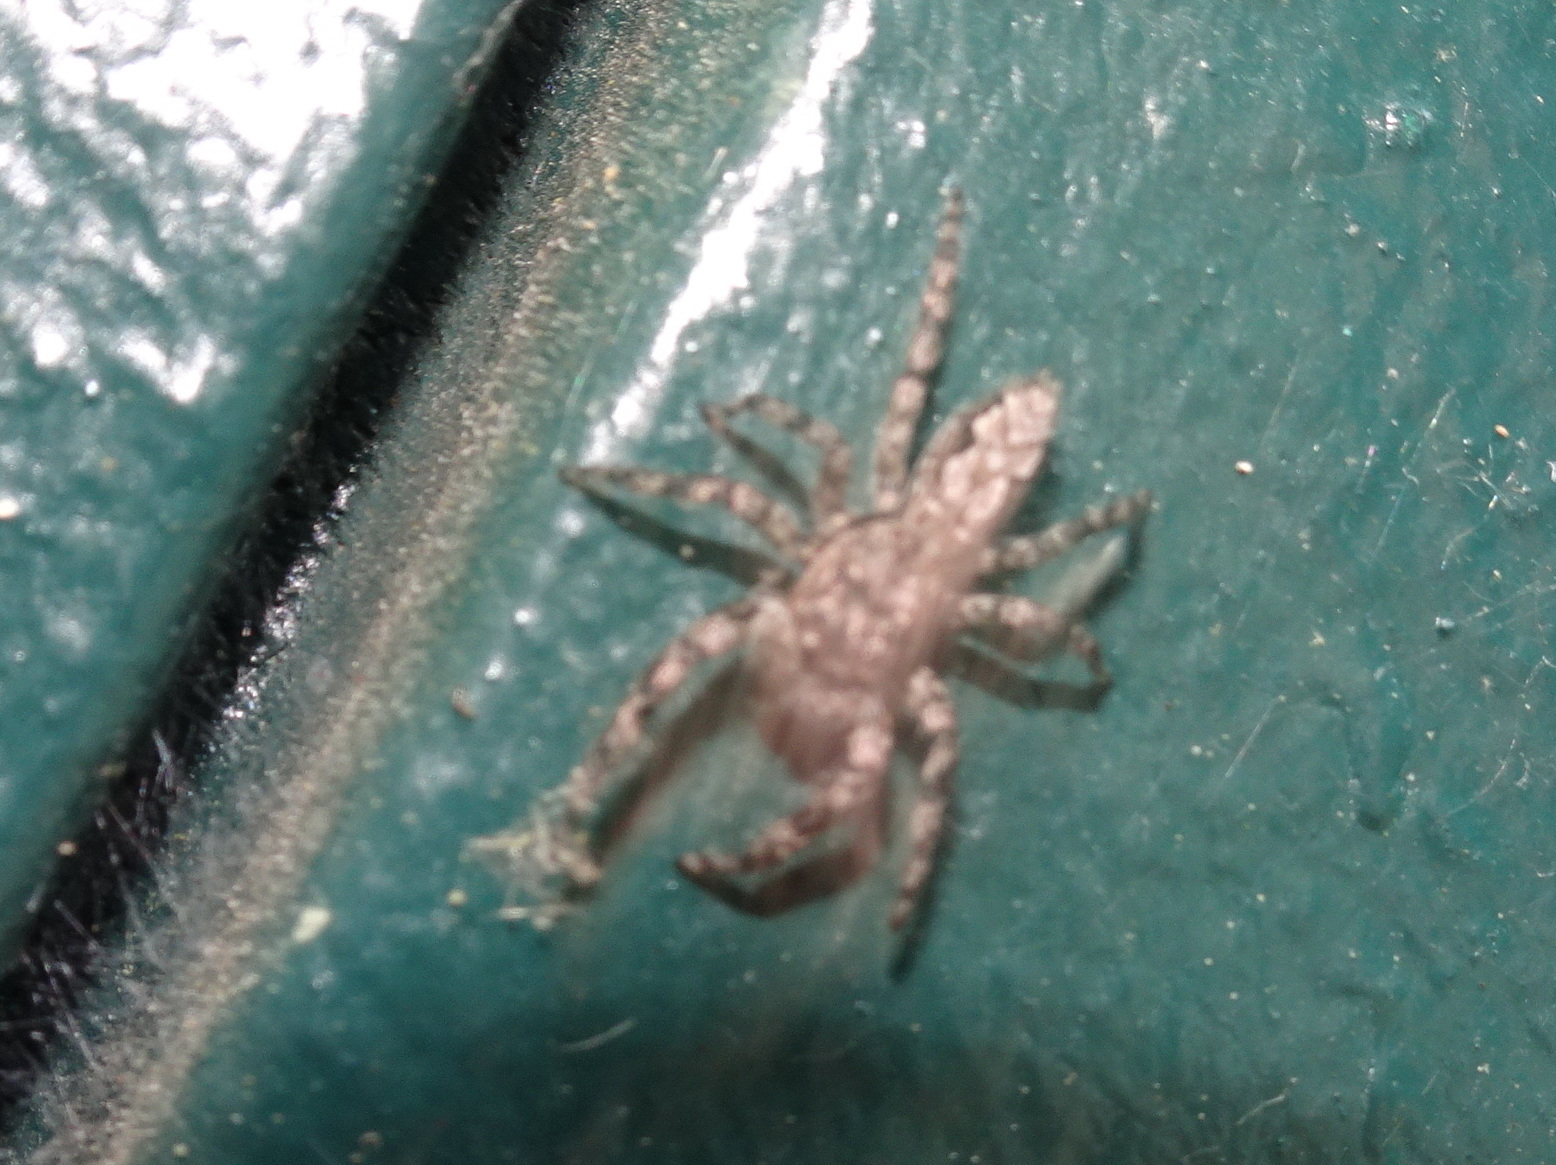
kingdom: Animalia
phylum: Arthropoda
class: Arachnida
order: Araneae
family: Salticidae
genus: Platycryptus
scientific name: Platycryptus undatus
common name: Tan jumping spider
